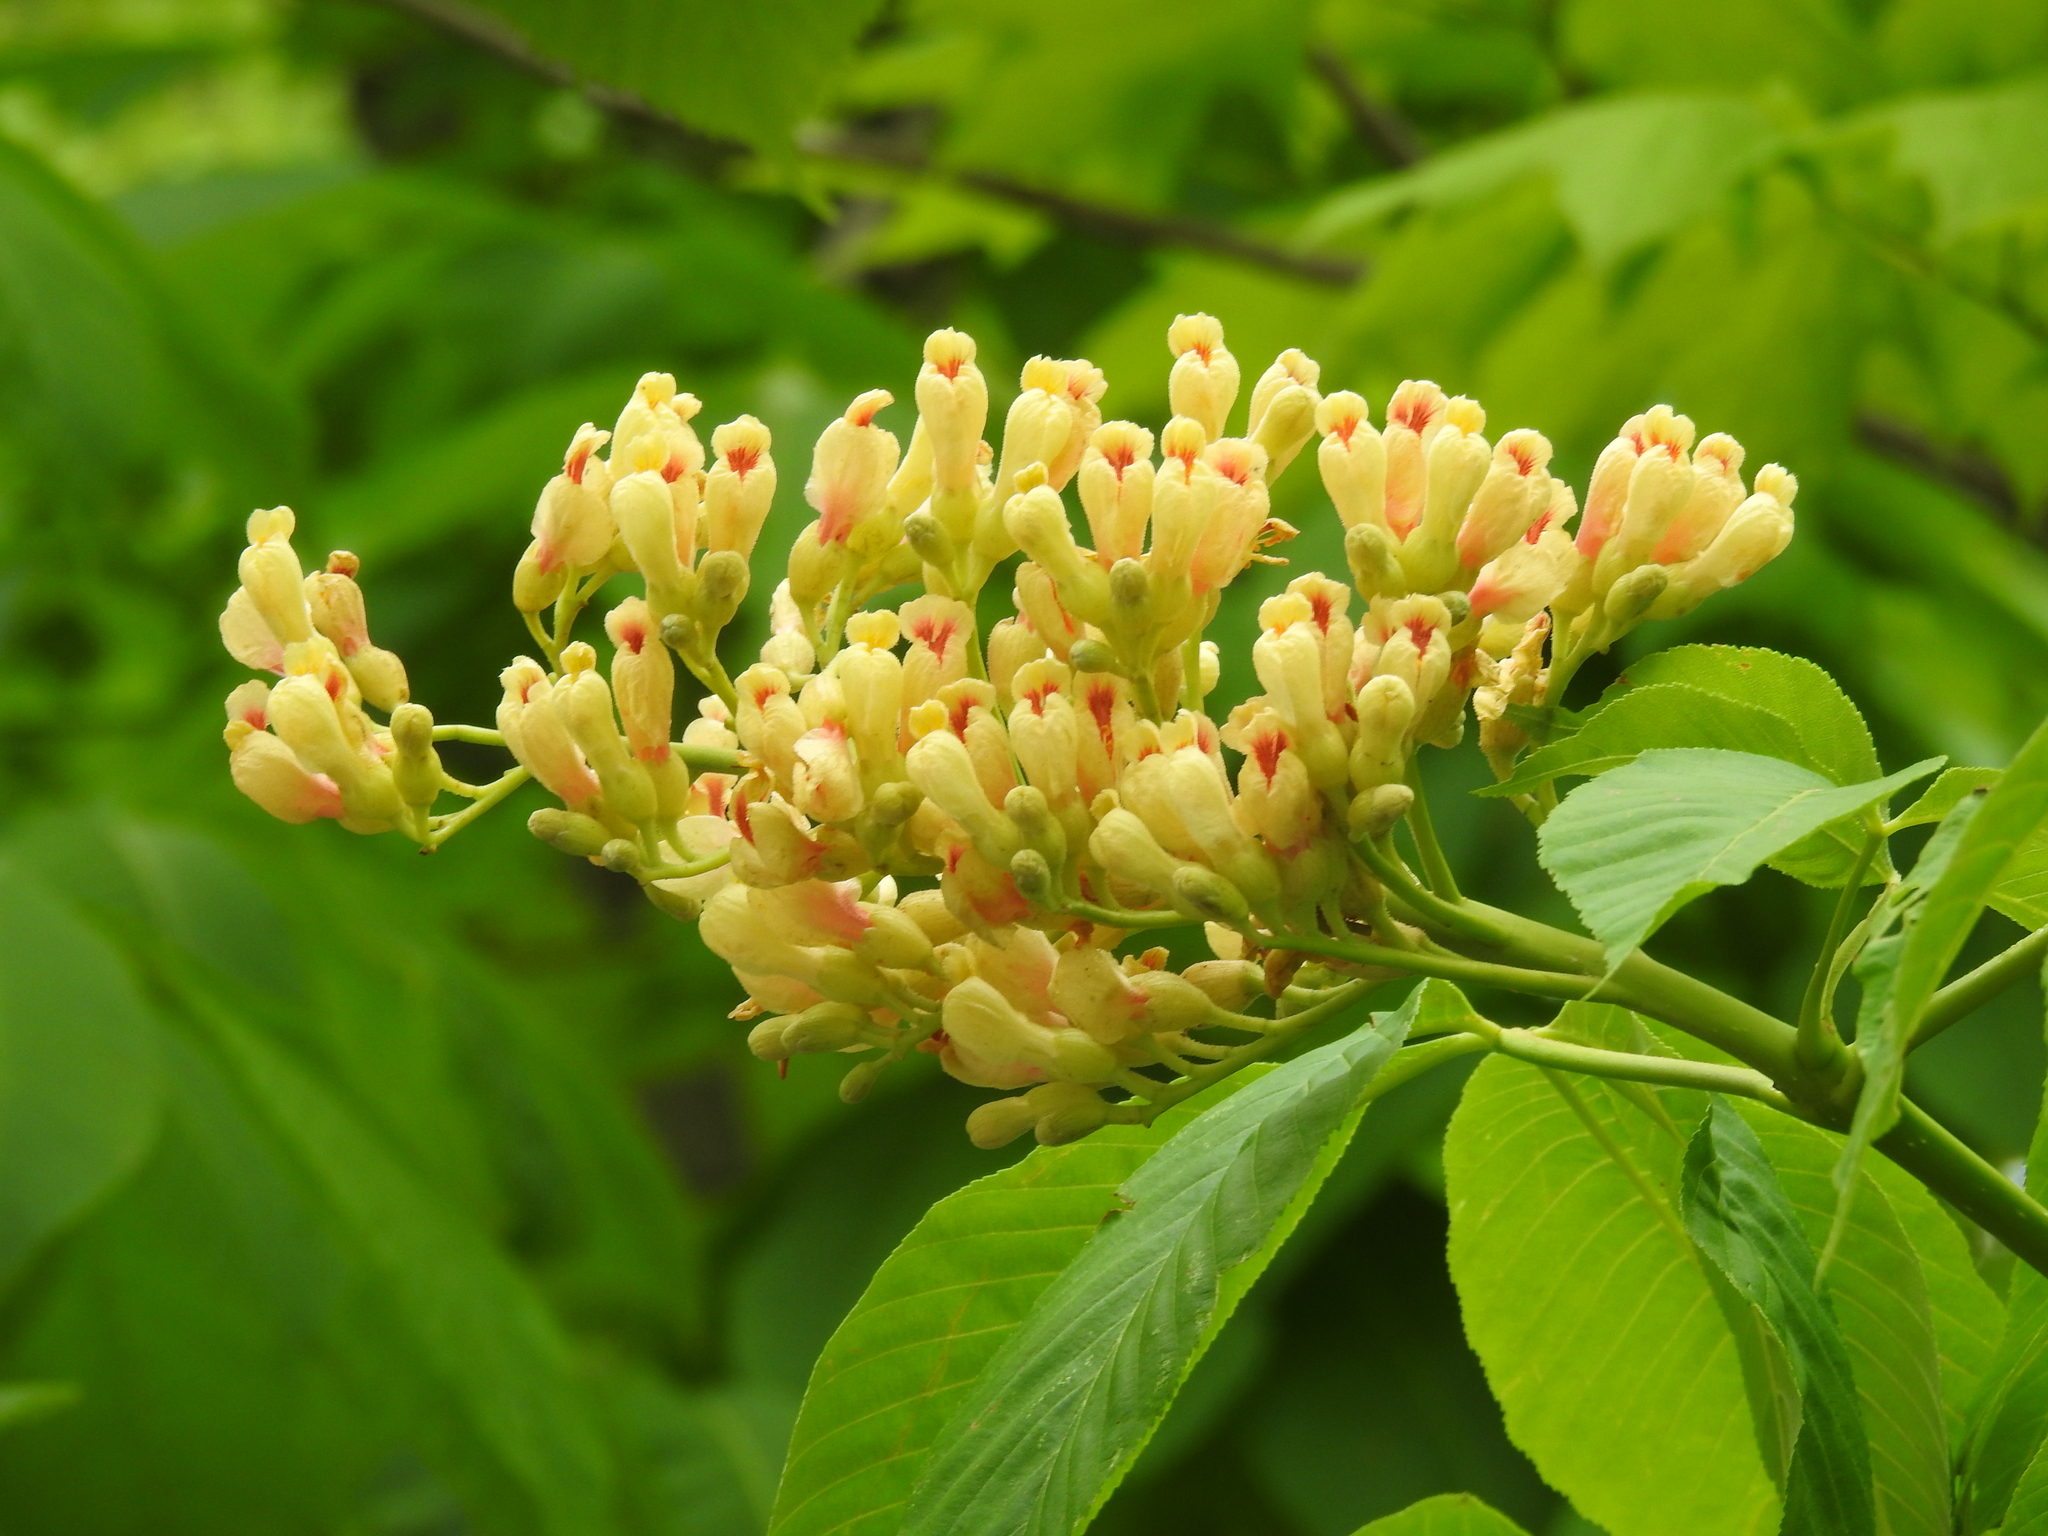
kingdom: Plantae
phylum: Tracheophyta
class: Magnoliopsida
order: Sapindales
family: Sapindaceae
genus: Aesculus
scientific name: Aesculus flava
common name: Yellow buckeye
